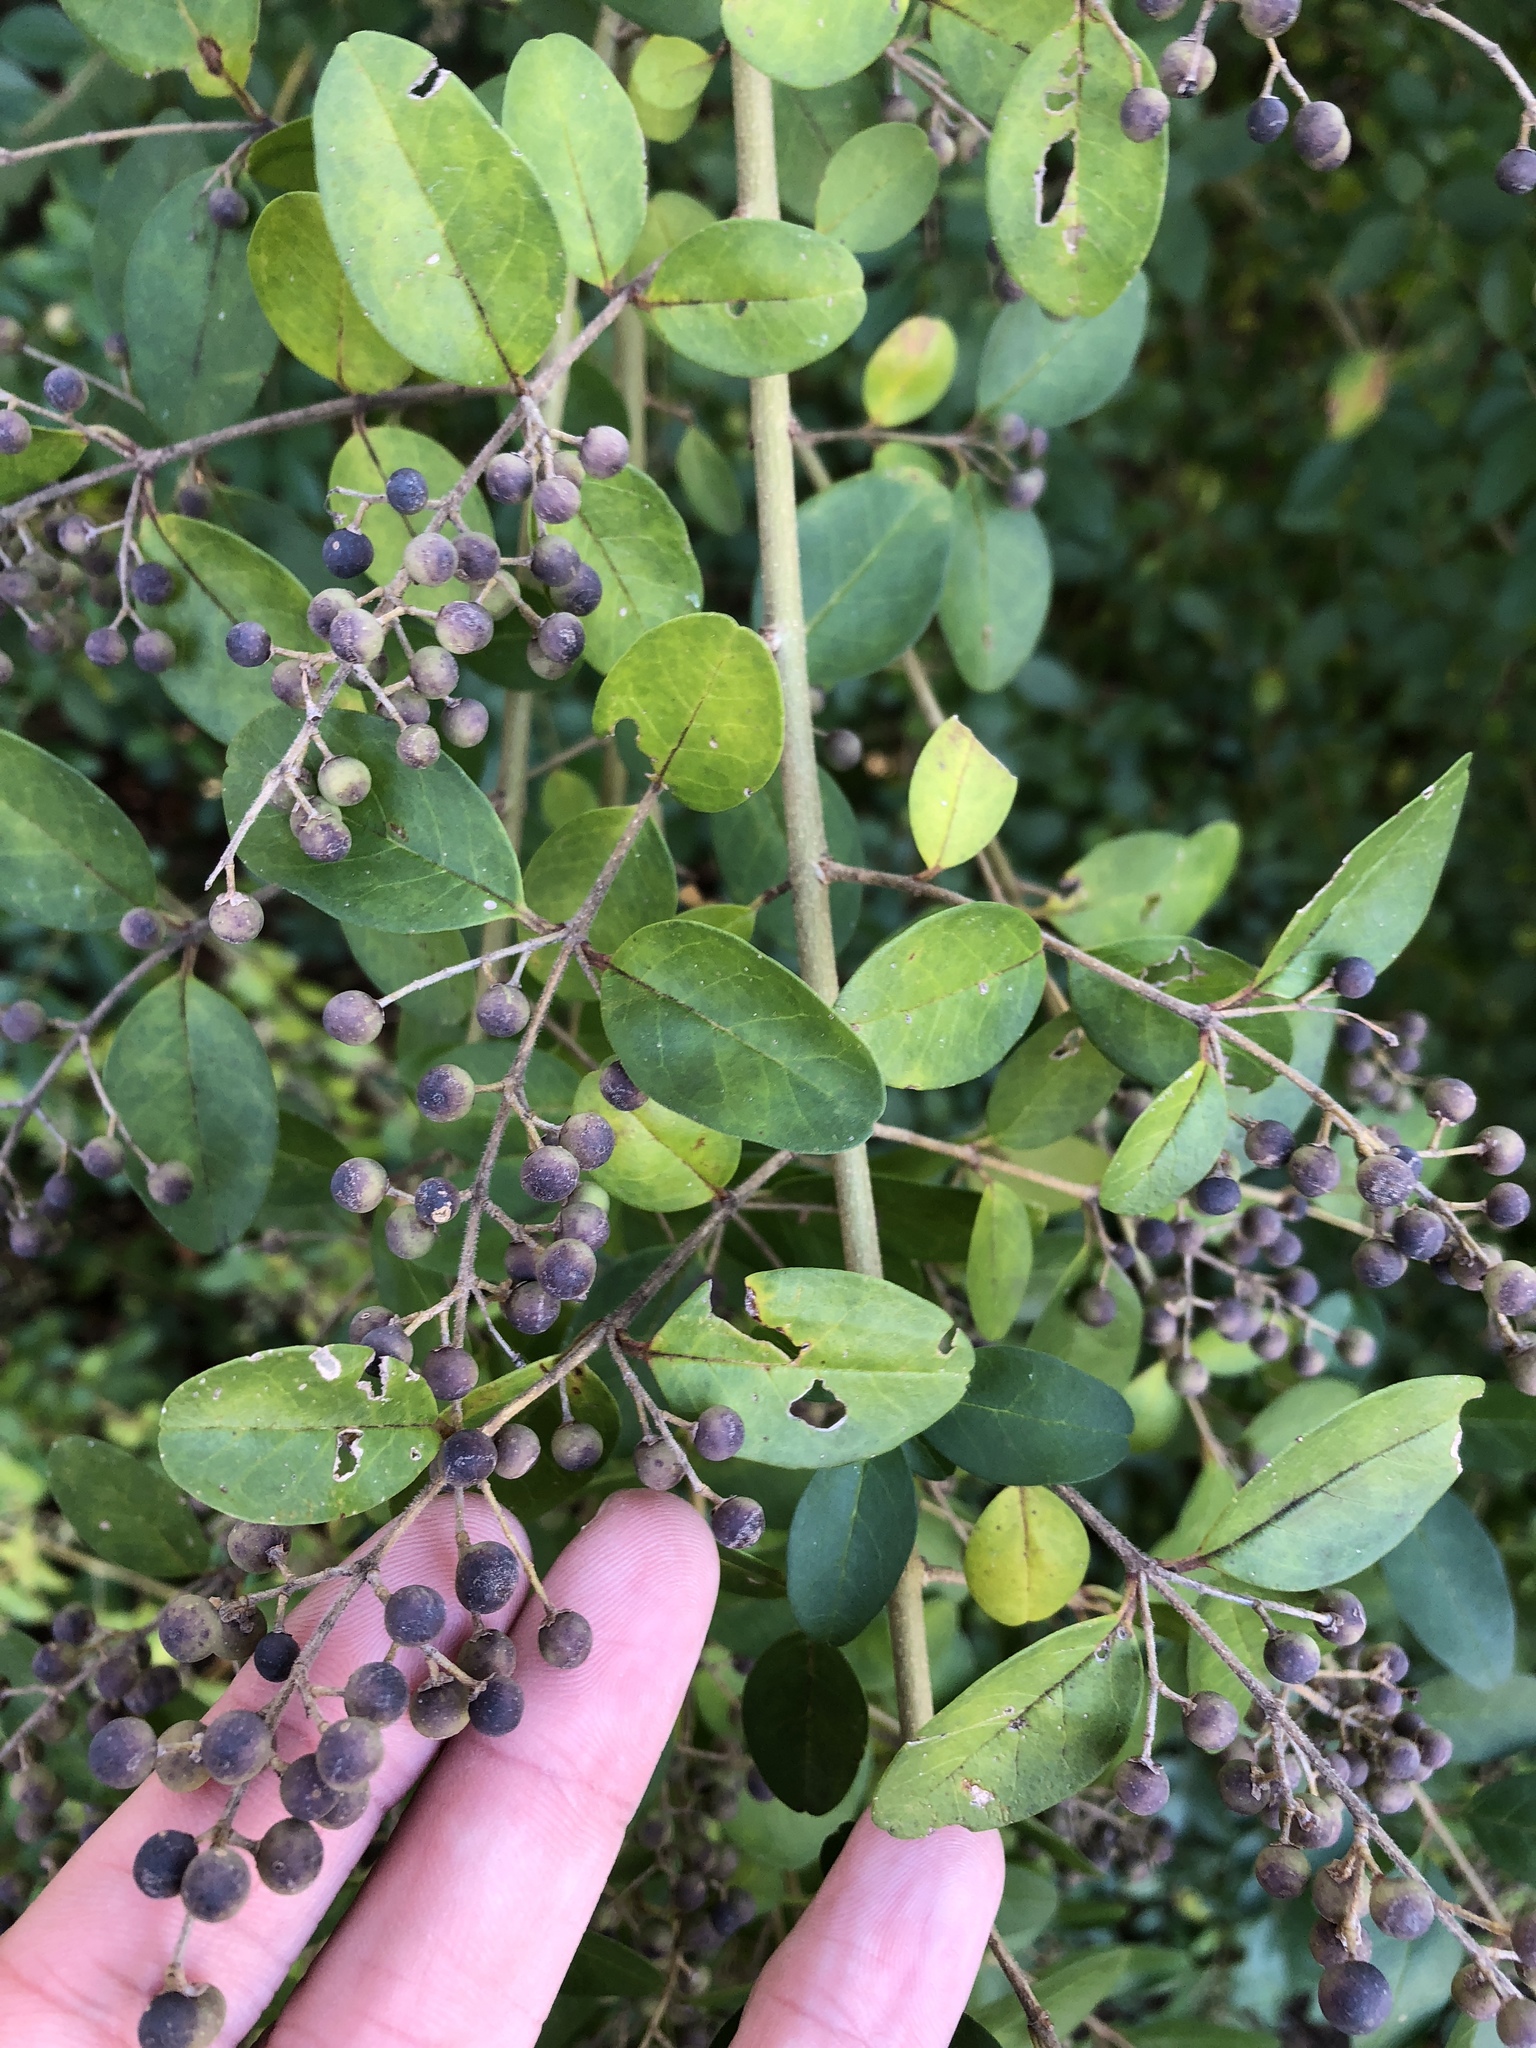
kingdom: Plantae
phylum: Tracheophyta
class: Magnoliopsida
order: Lamiales
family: Oleaceae
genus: Ligustrum
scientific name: Ligustrum sinense
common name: Chinese privet
